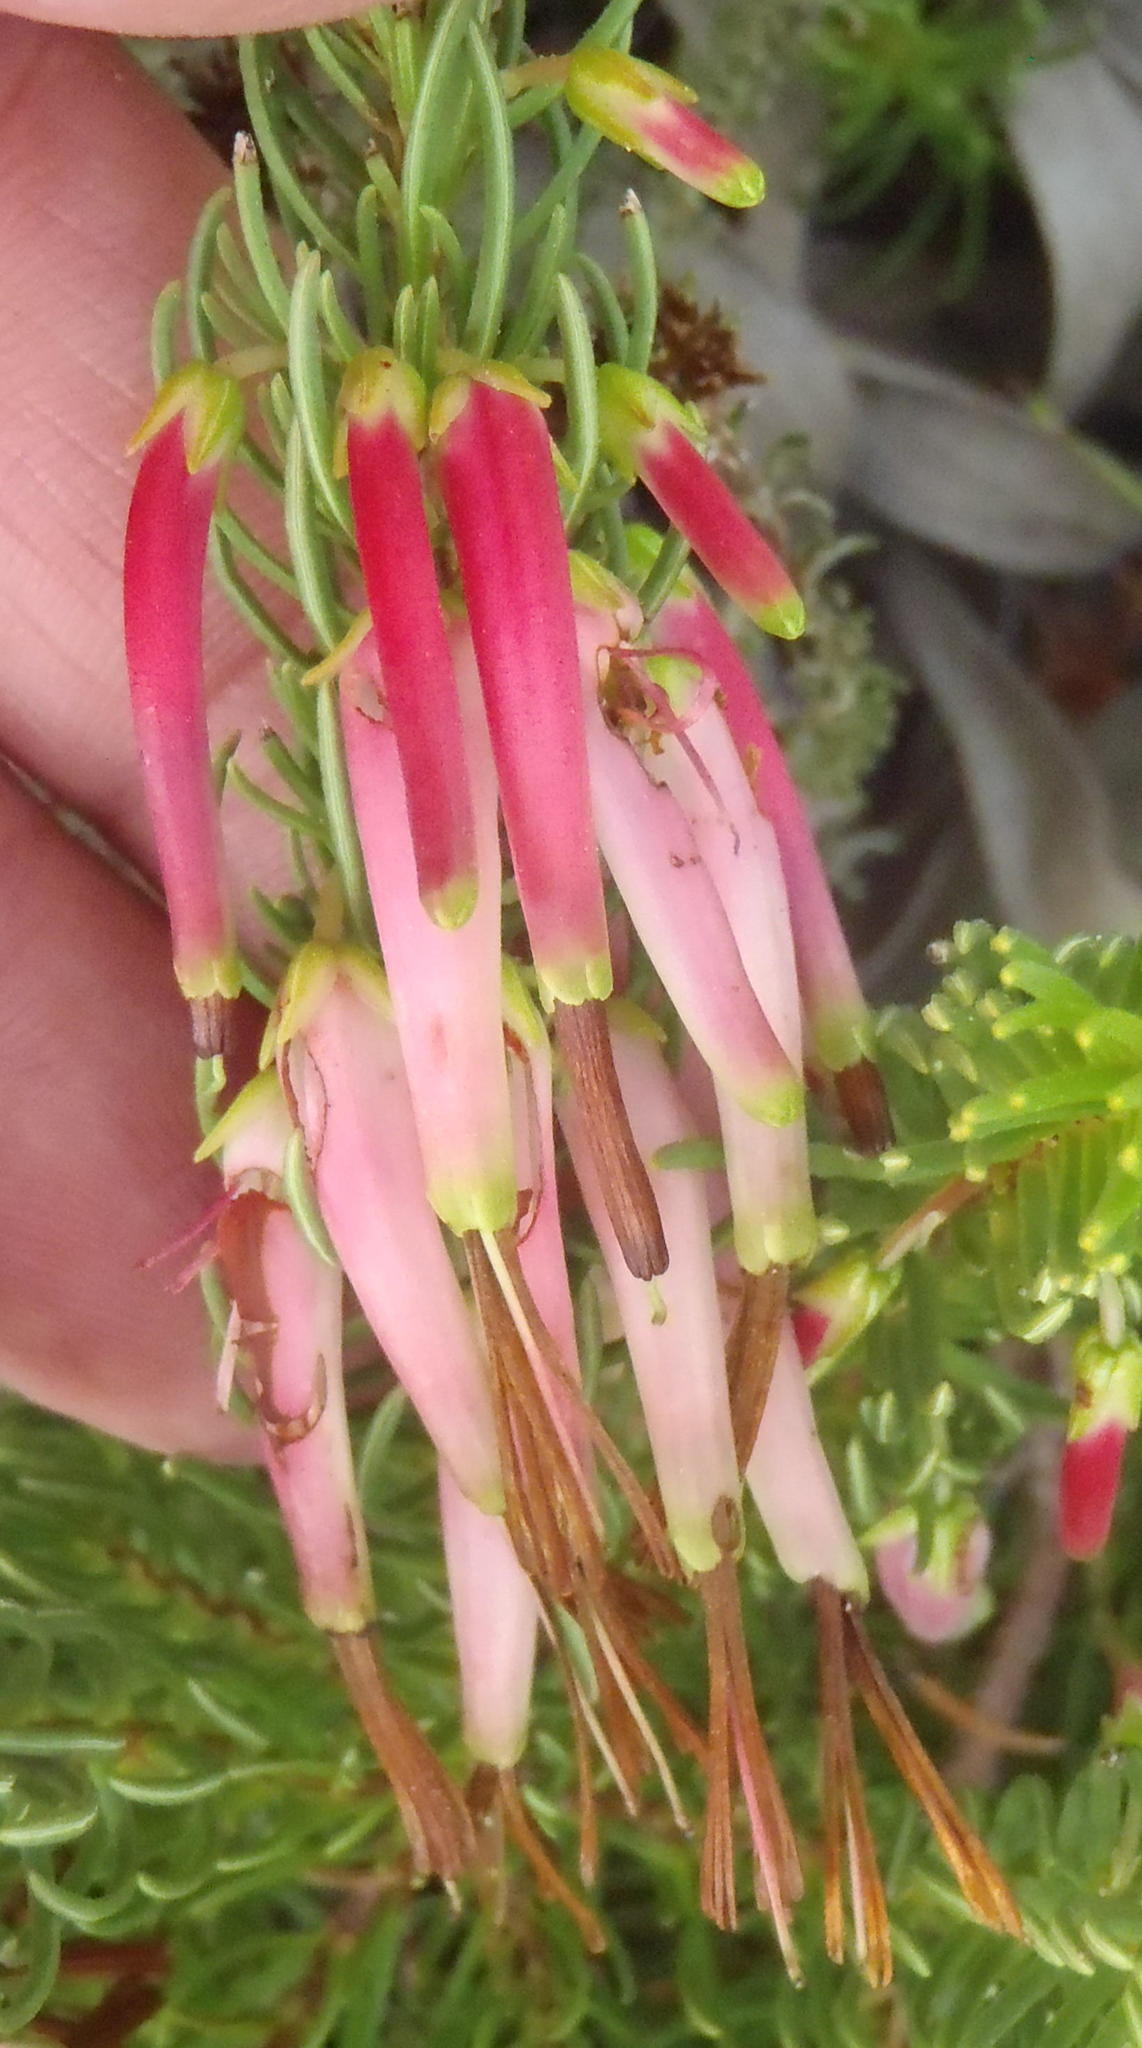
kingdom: Plantae
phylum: Tracheophyta
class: Magnoliopsida
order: Ericales
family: Ericaceae
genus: Erica
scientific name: Erica plukenetii
